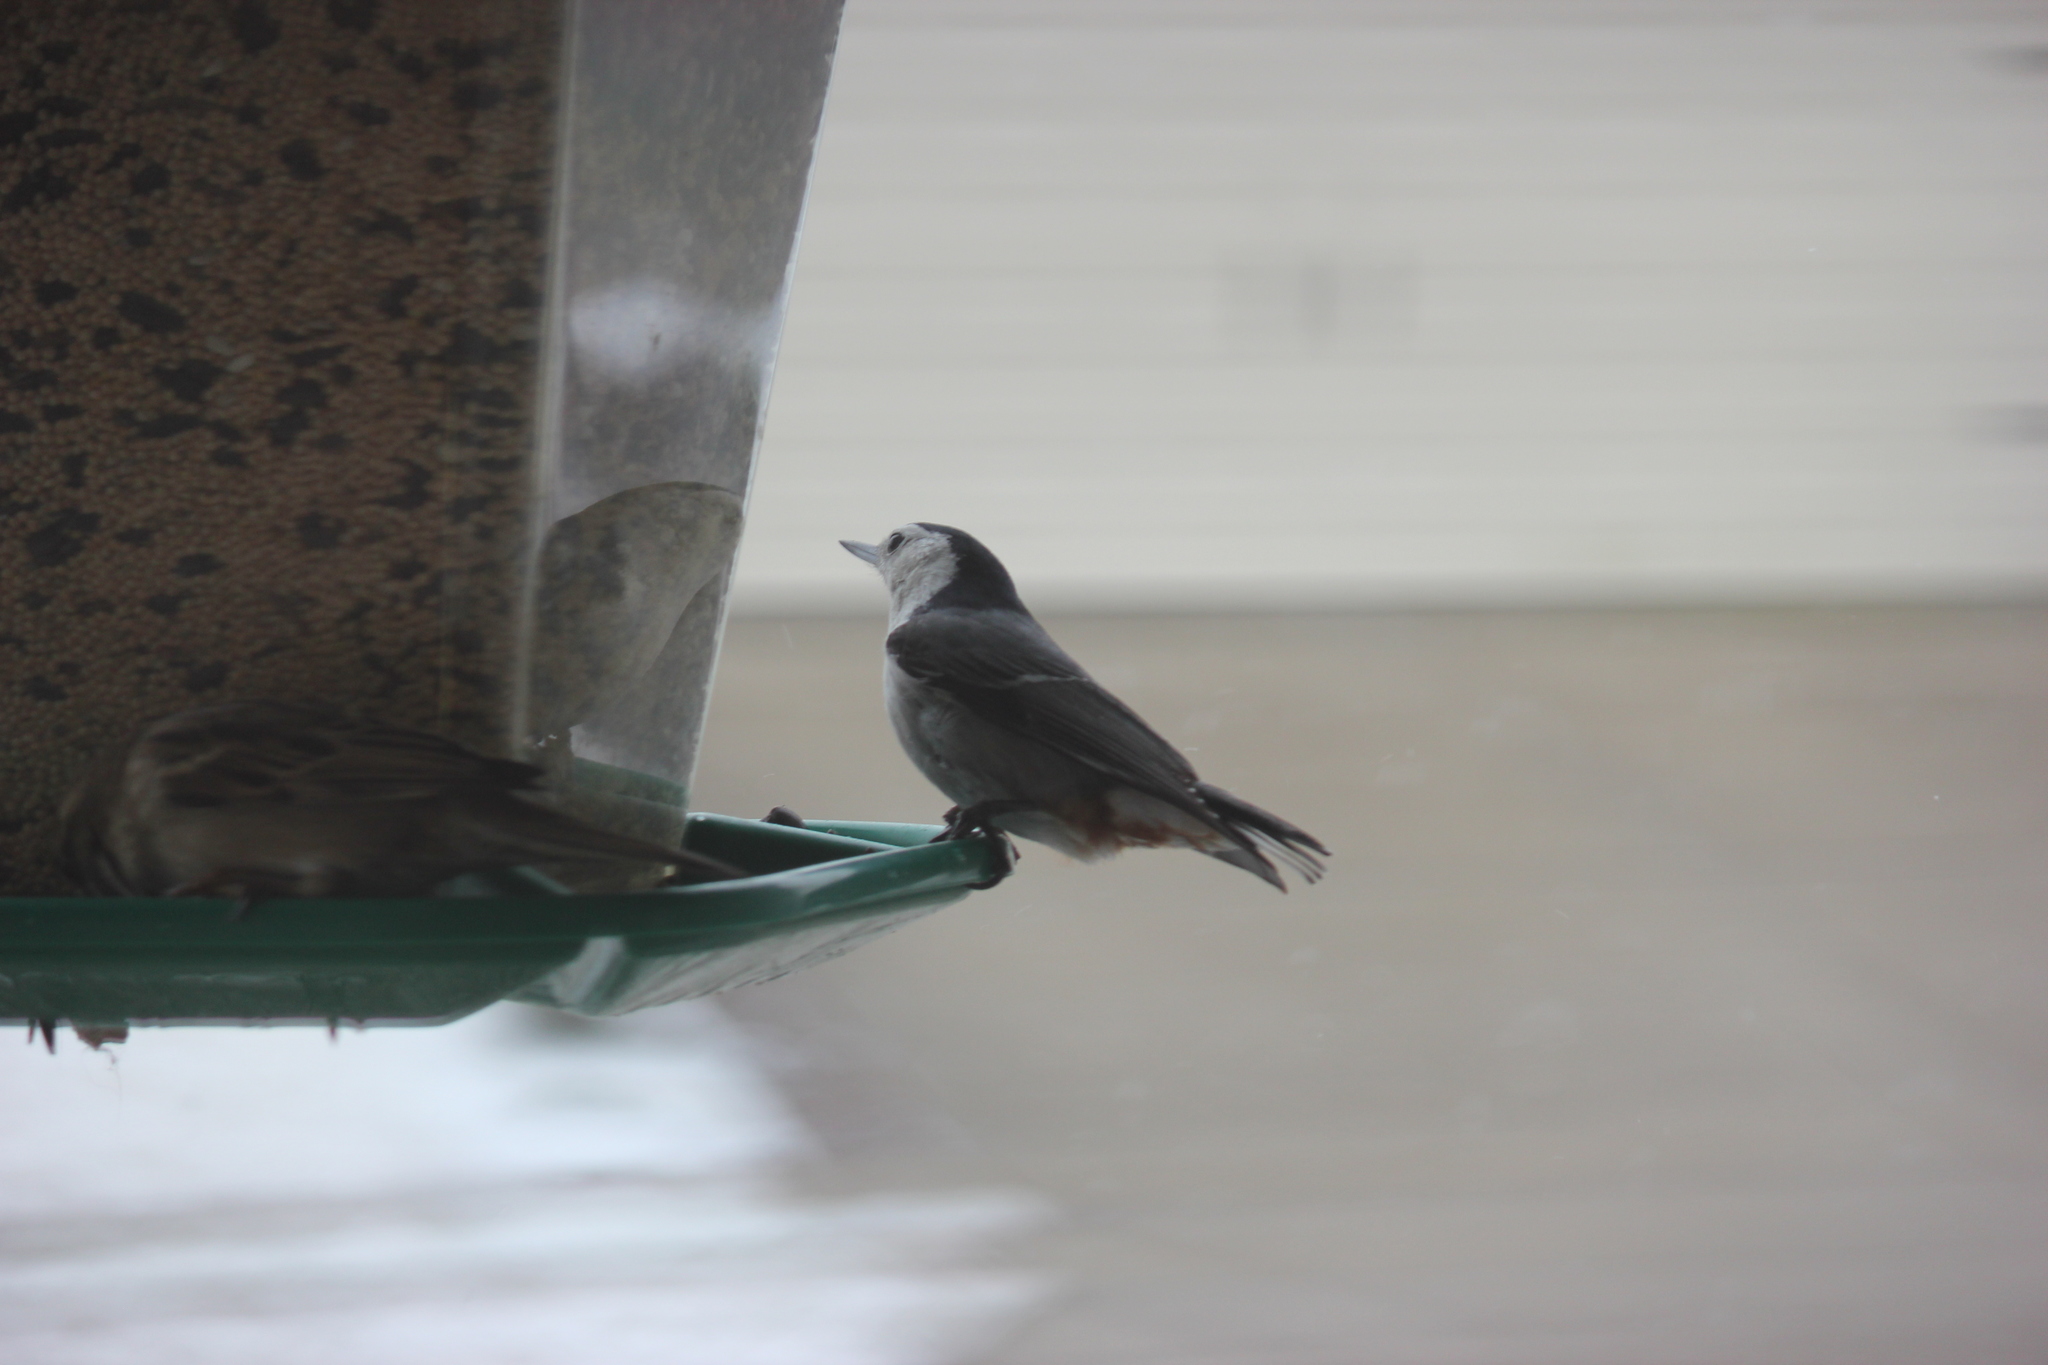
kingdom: Animalia
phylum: Chordata
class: Aves
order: Passeriformes
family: Sittidae
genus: Sitta
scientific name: Sitta carolinensis
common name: White-breasted nuthatch
